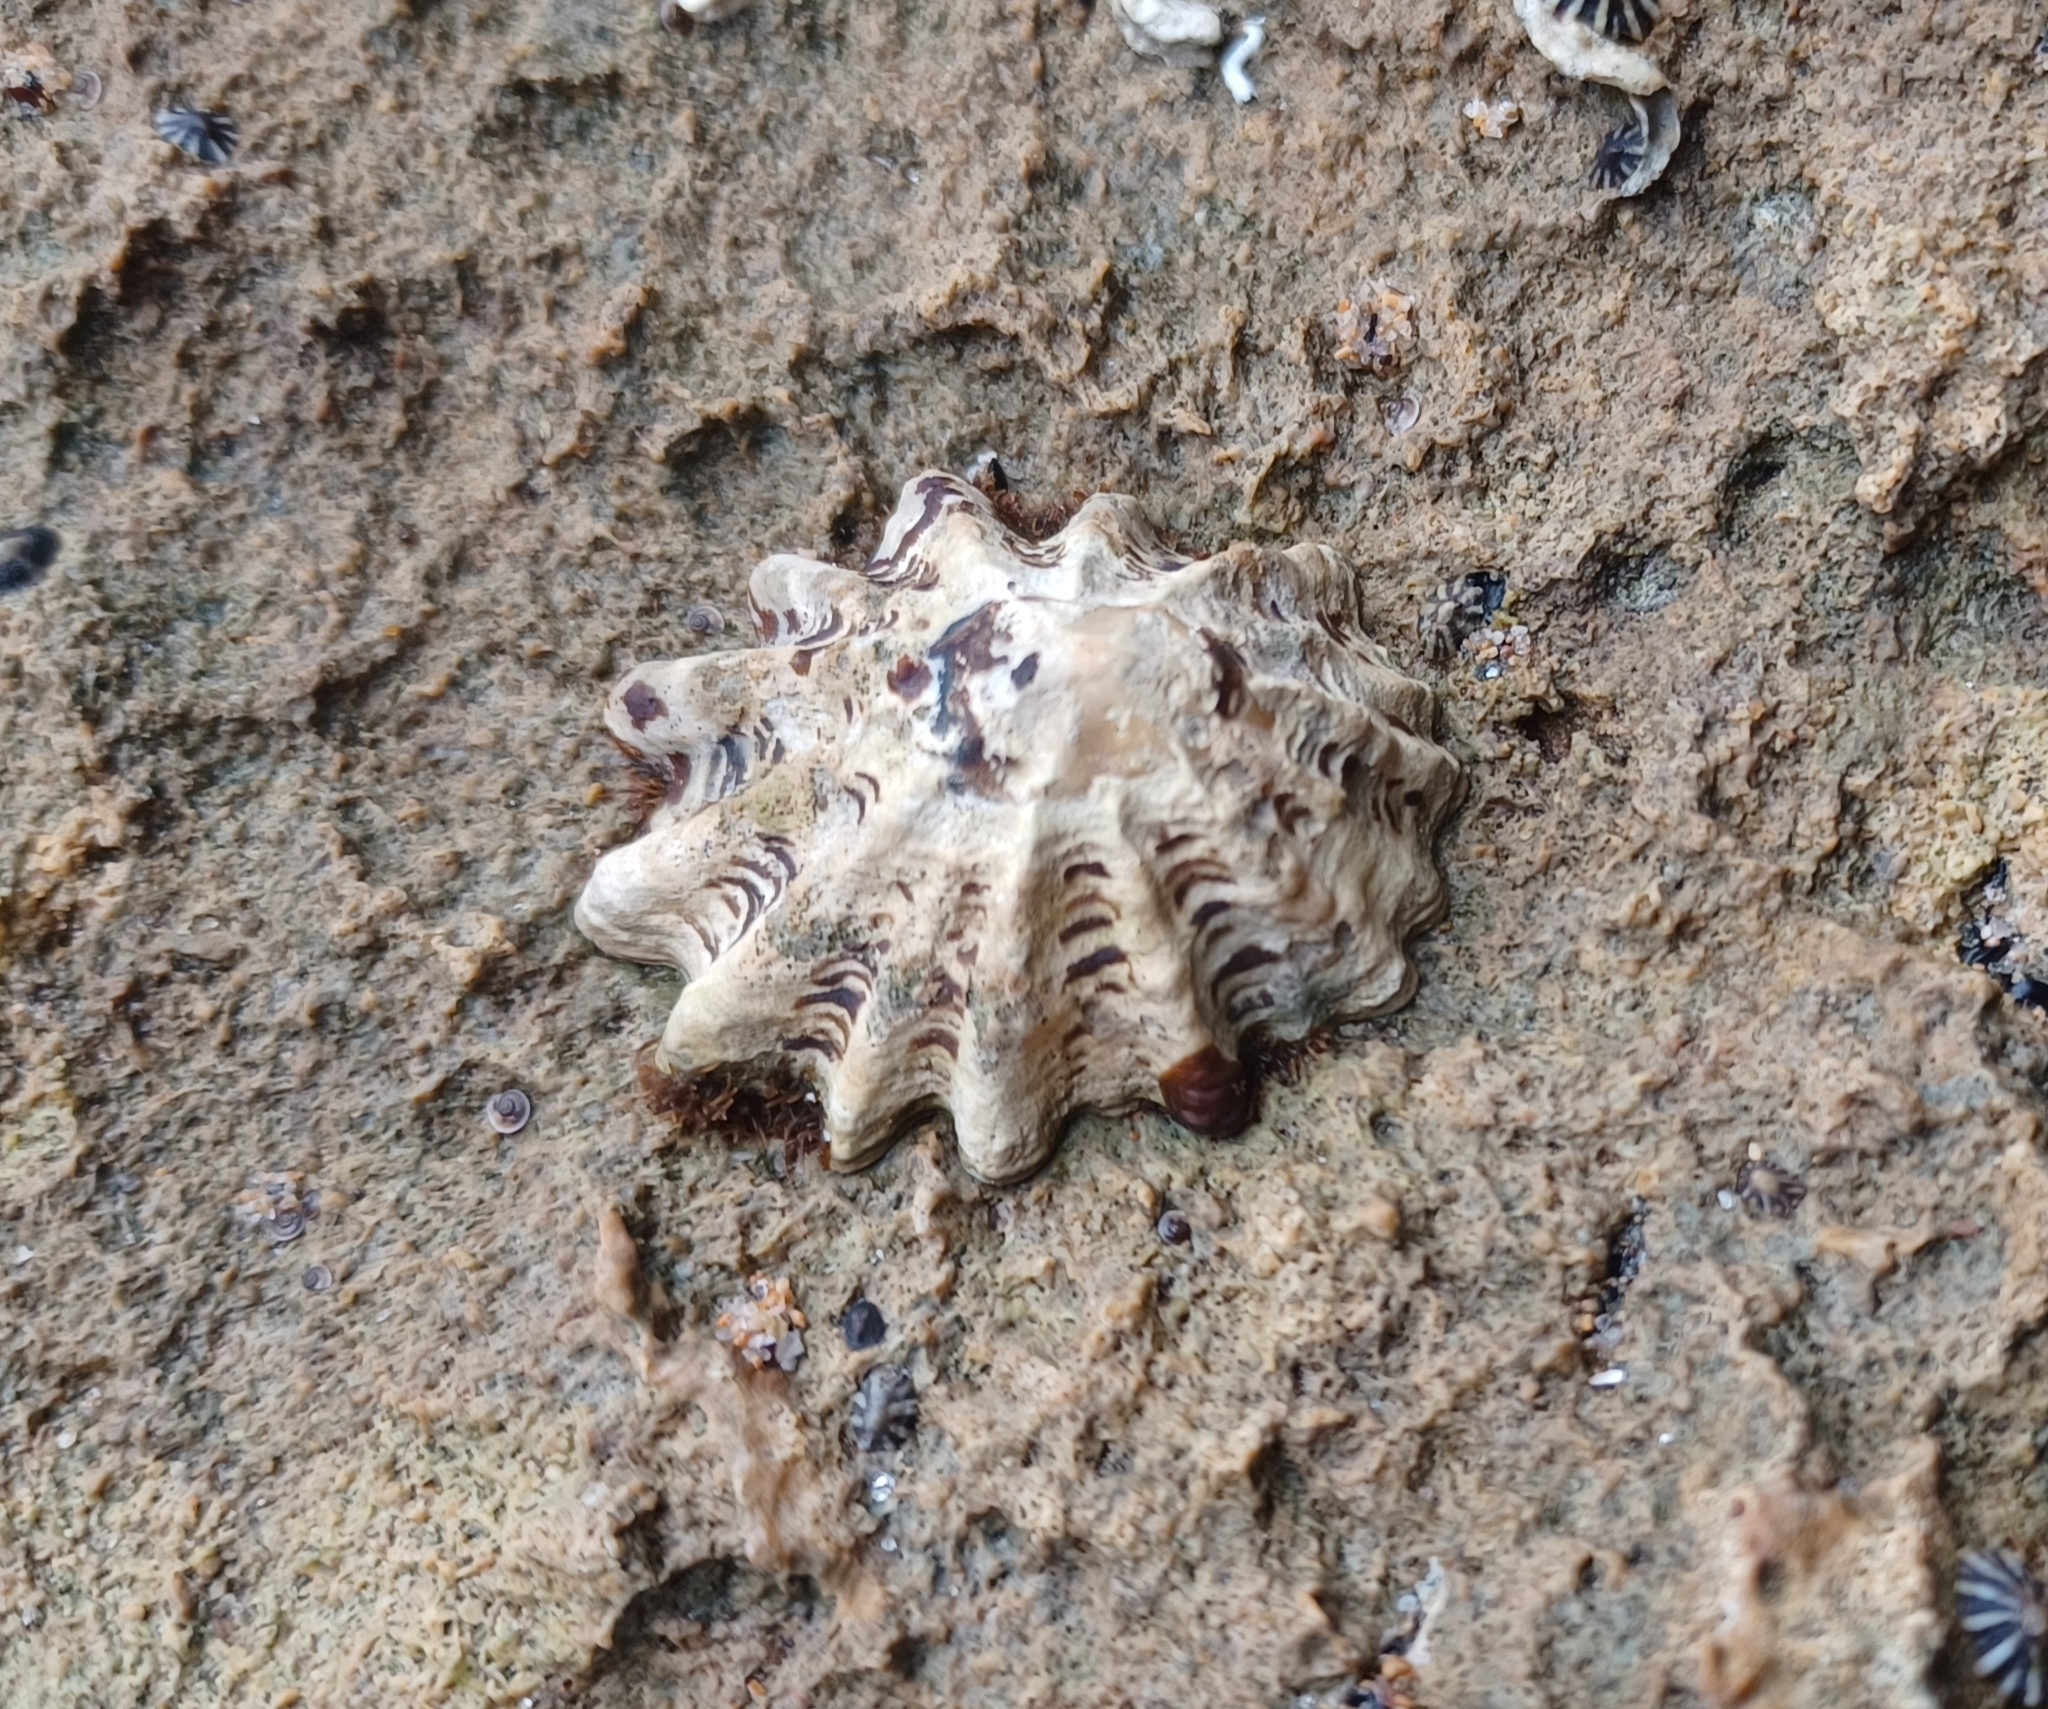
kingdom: Animalia
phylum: Mollusca
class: Gastropoda
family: Lottiidae
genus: Patelloida
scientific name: Patelloida alticostata
